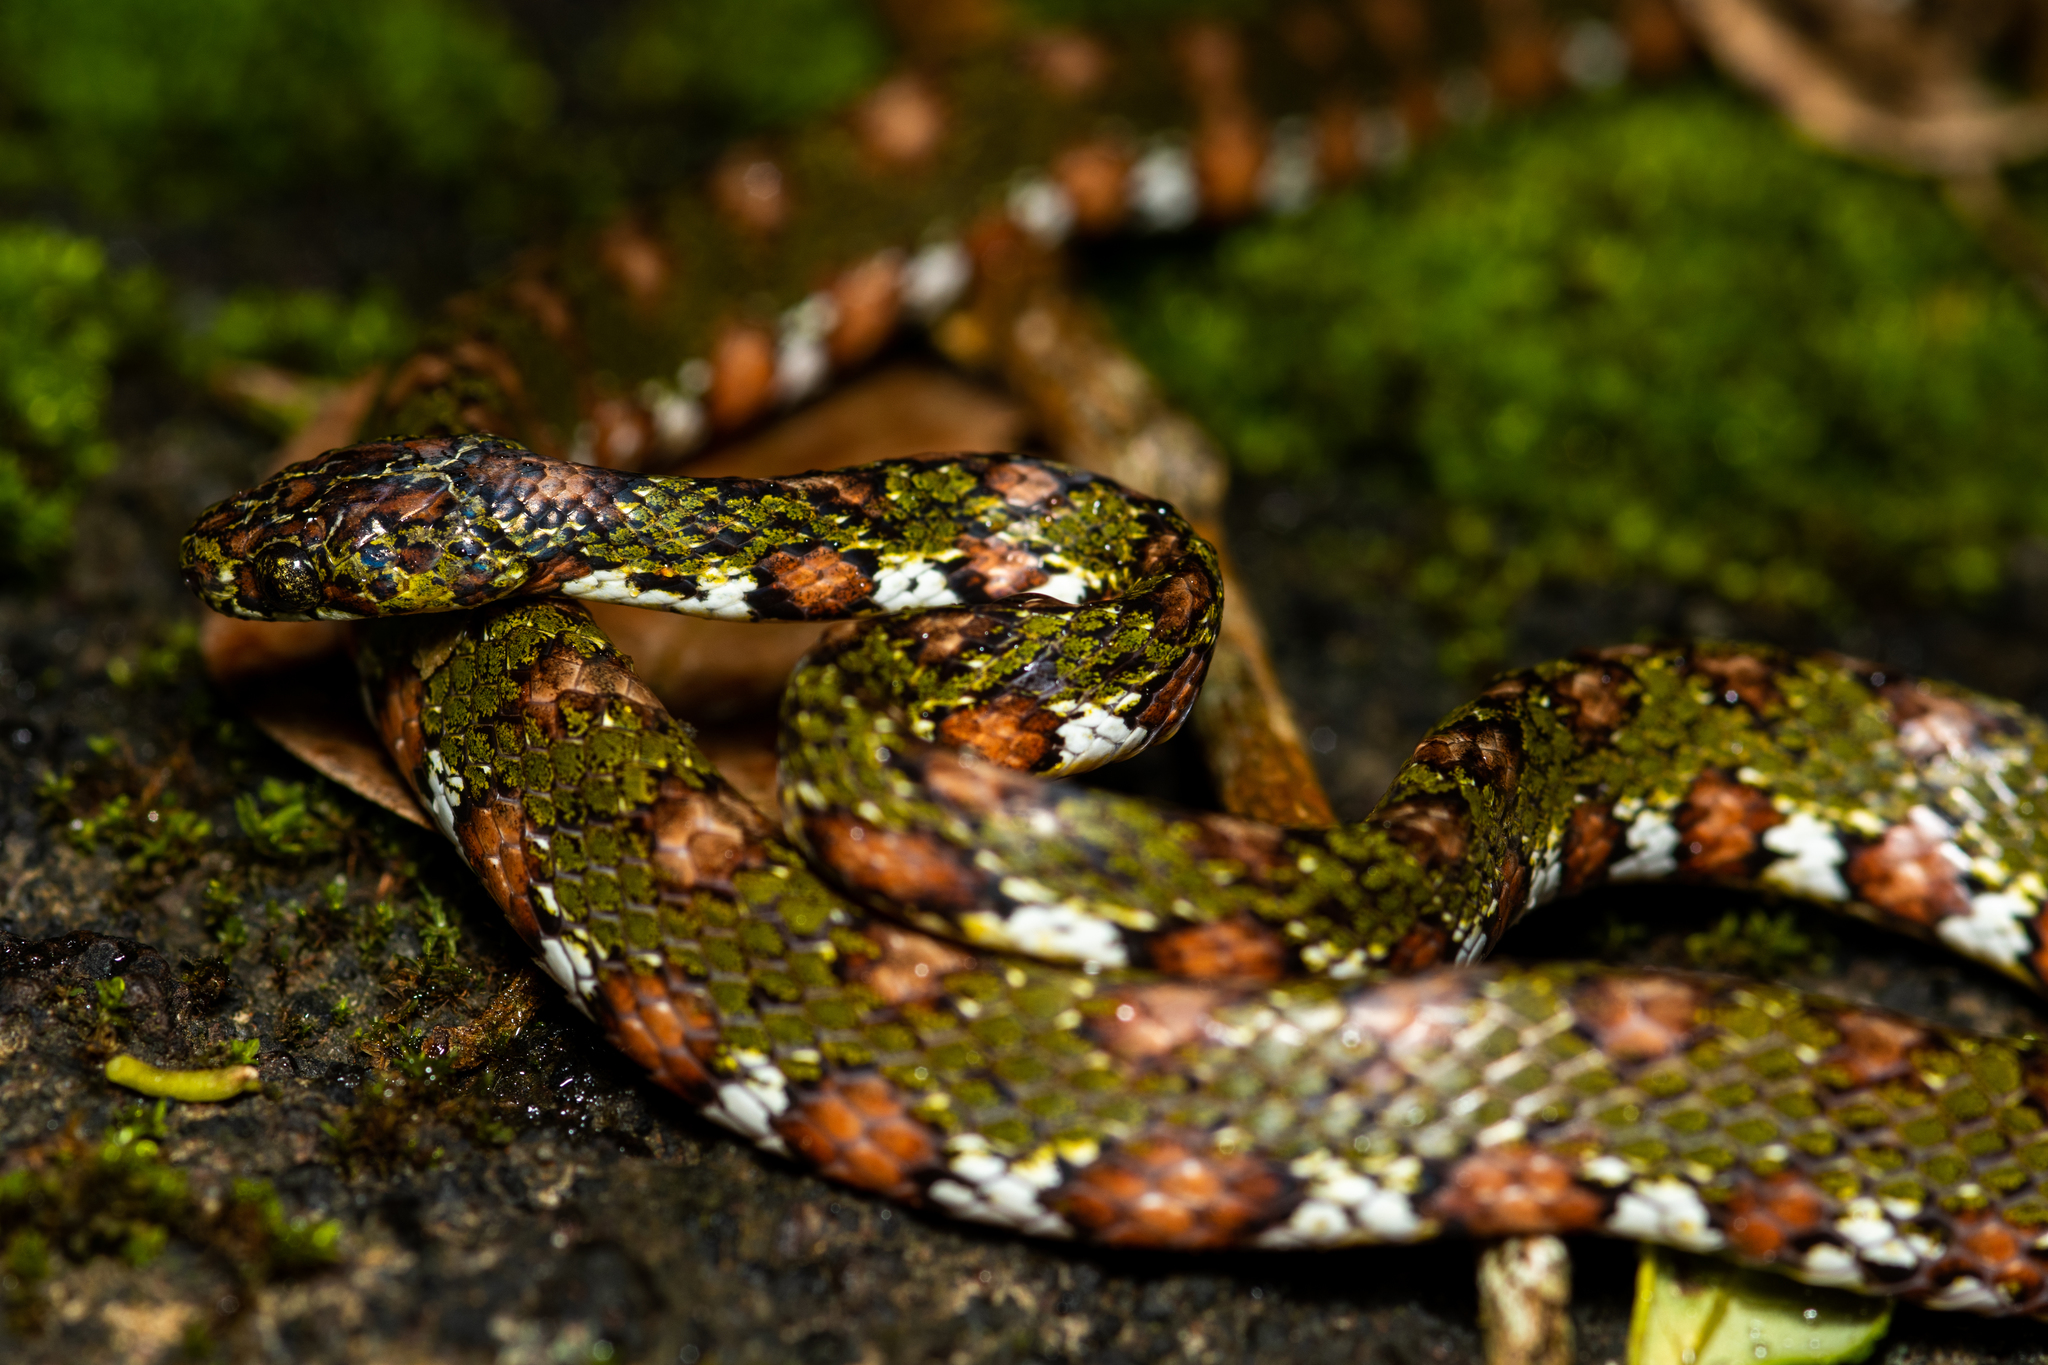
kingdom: Animalia
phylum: Chordata
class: Squamata
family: Colubridae
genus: Sibon
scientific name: Sibon longifrenis
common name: Stejneger's snail sucker
